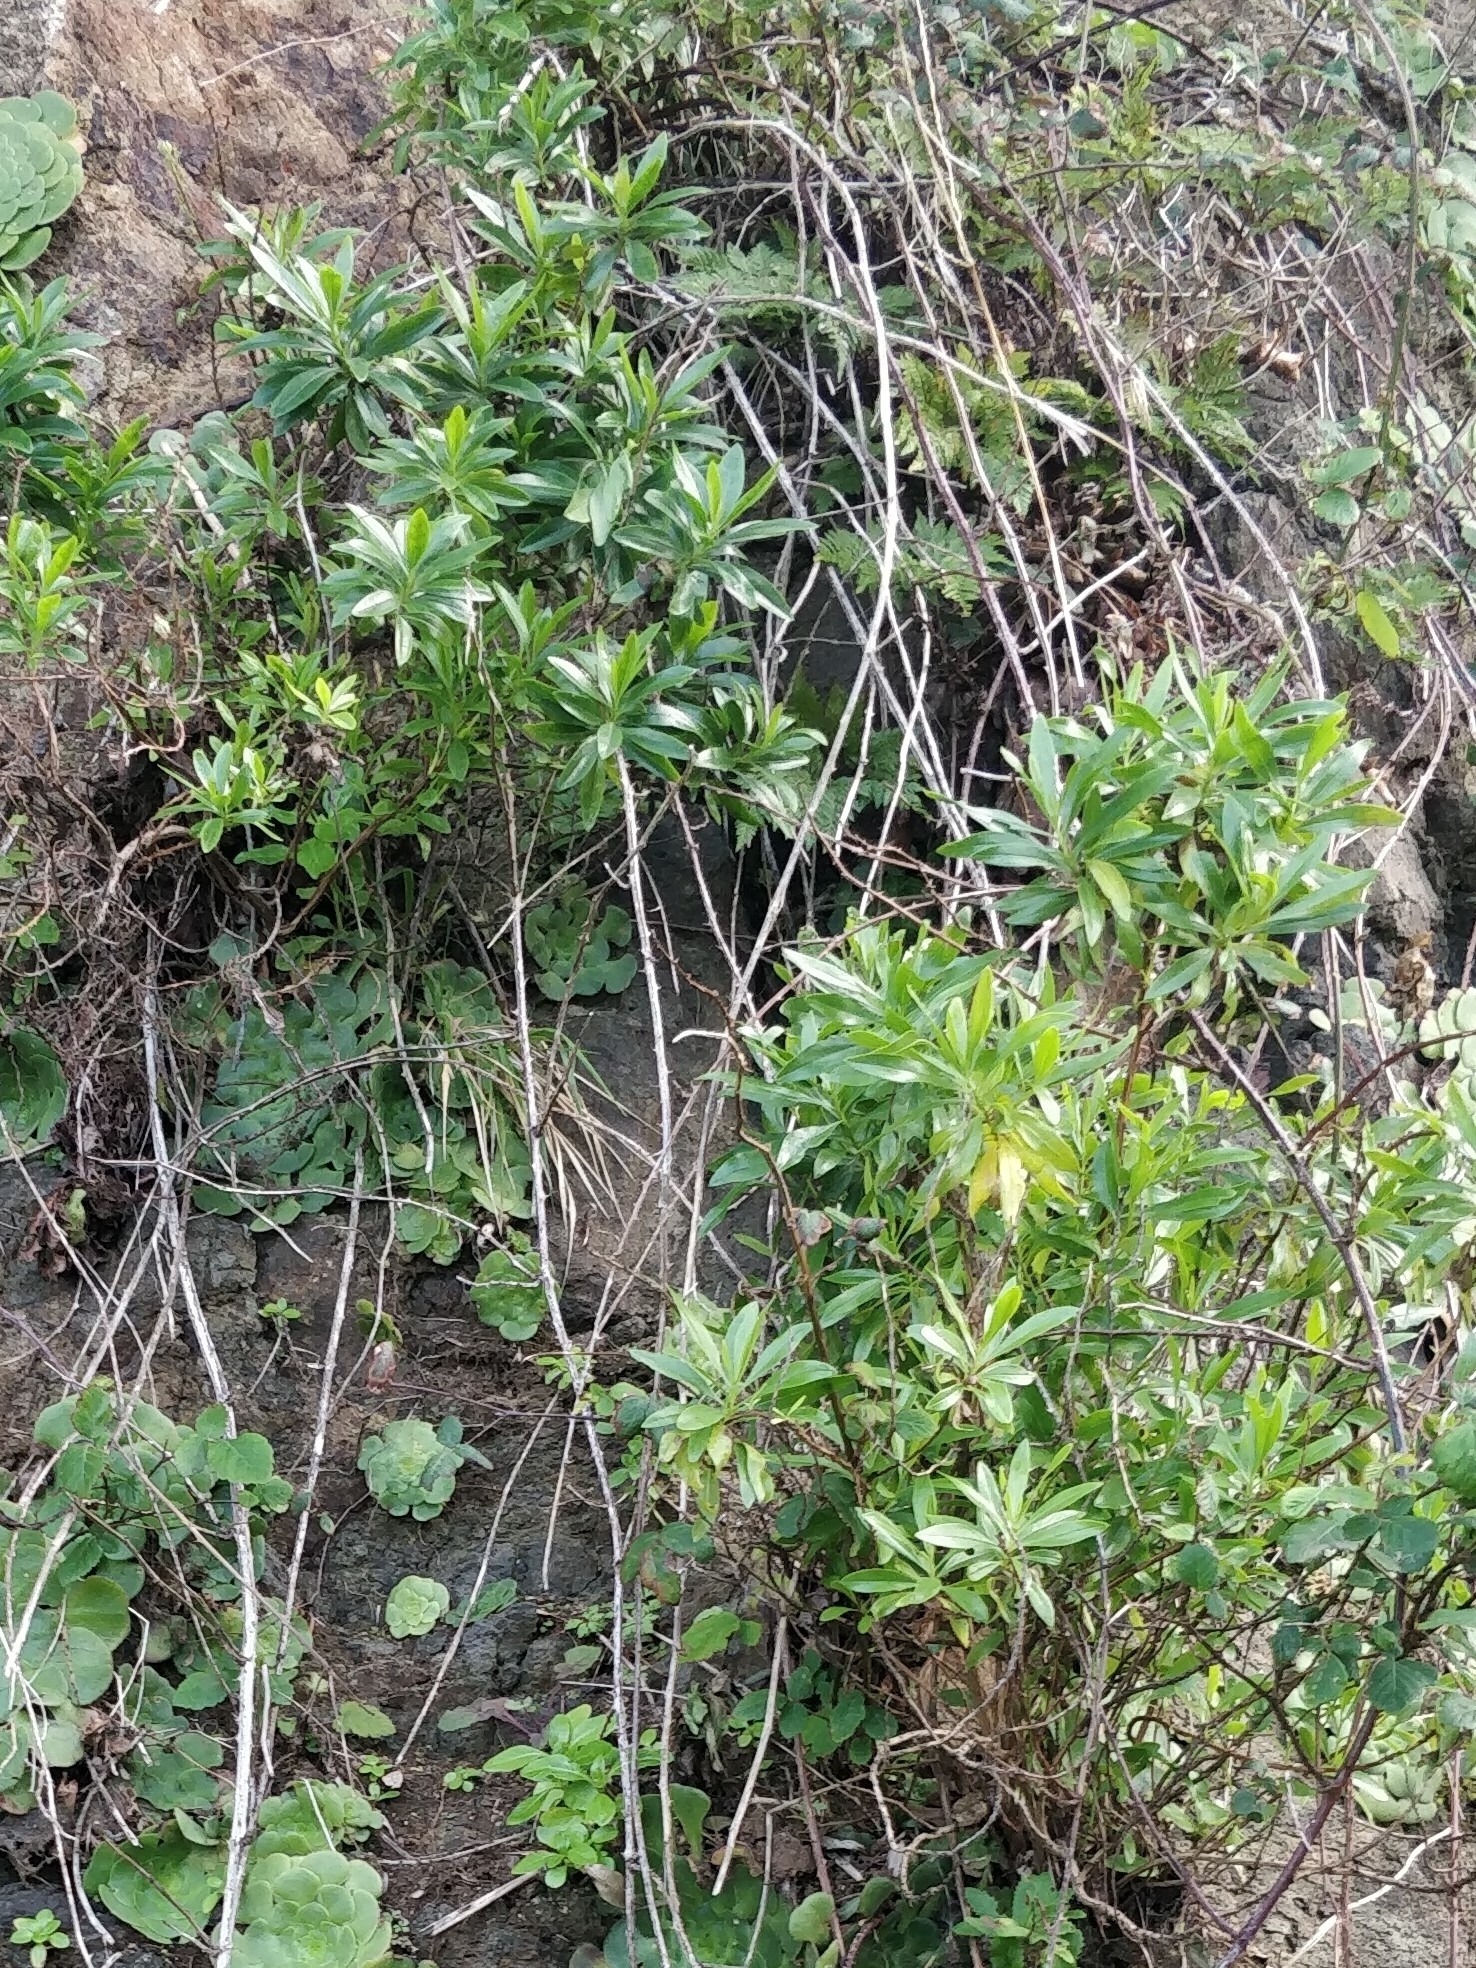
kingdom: Plantae
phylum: Tracheophyta
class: Magnoliopsida
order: Lamiales
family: Plantaginaceae
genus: Globularia
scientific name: Globularia salicina
